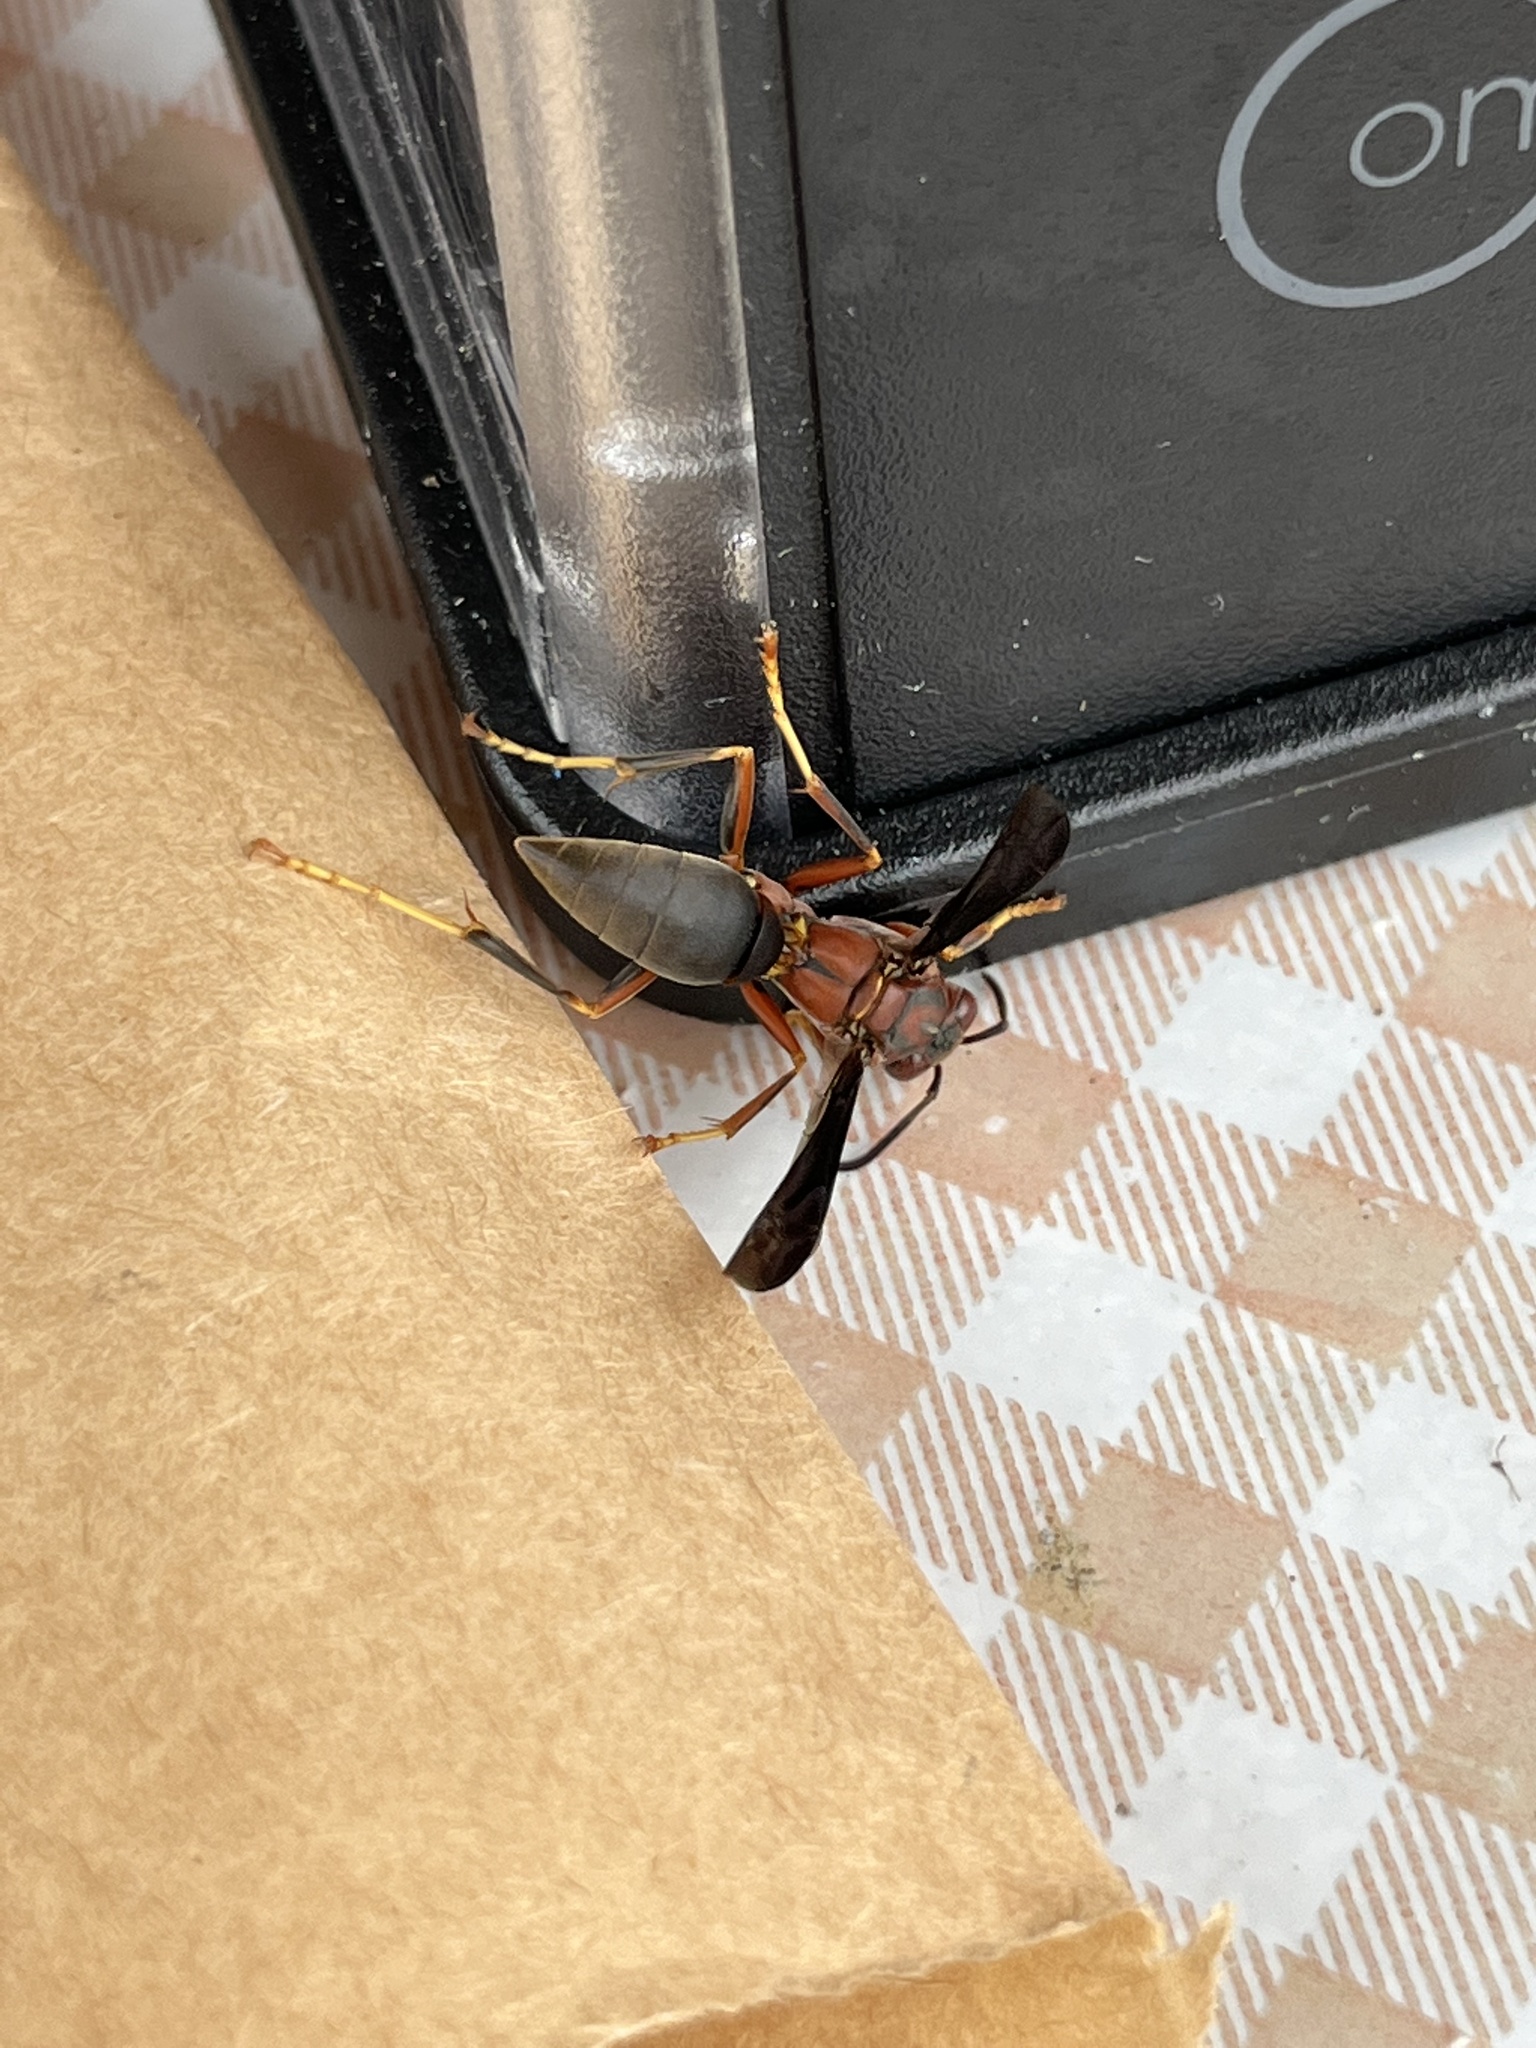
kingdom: Animalia
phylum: Arthropoda
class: Insecta
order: Hymenoptera
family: Eumenidae
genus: Polistes
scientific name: Polistes metricus
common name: Metric paper wasp
